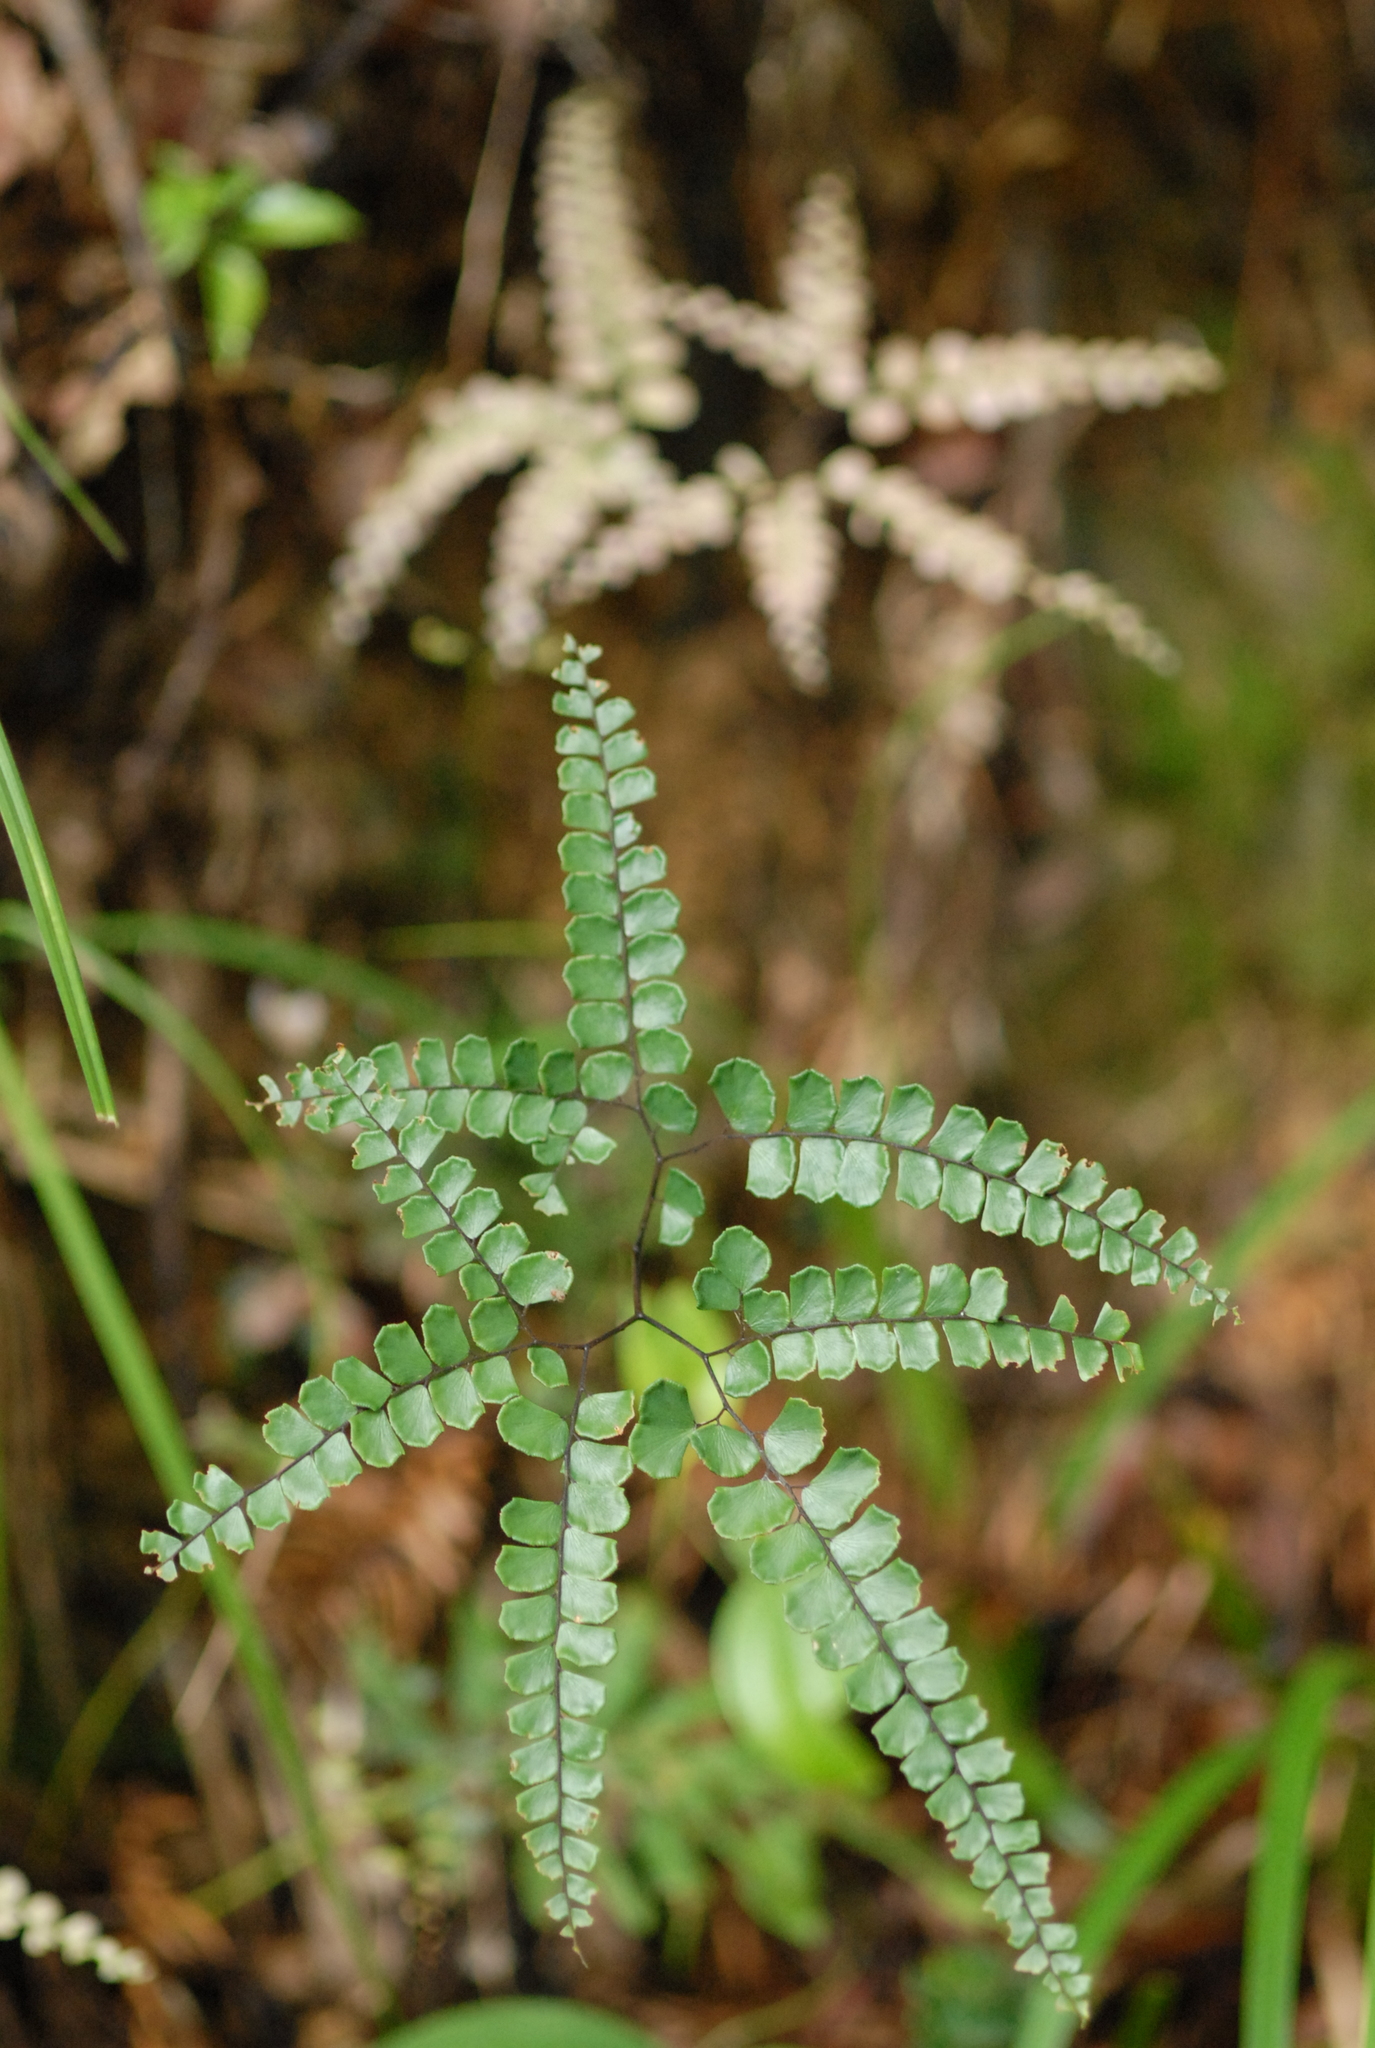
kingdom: Plantae
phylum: Tracheophyta
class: Polypodiopsida
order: Polypodiales
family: Pteridaceae
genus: Adiantum
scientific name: Adiantum flabellulatum
